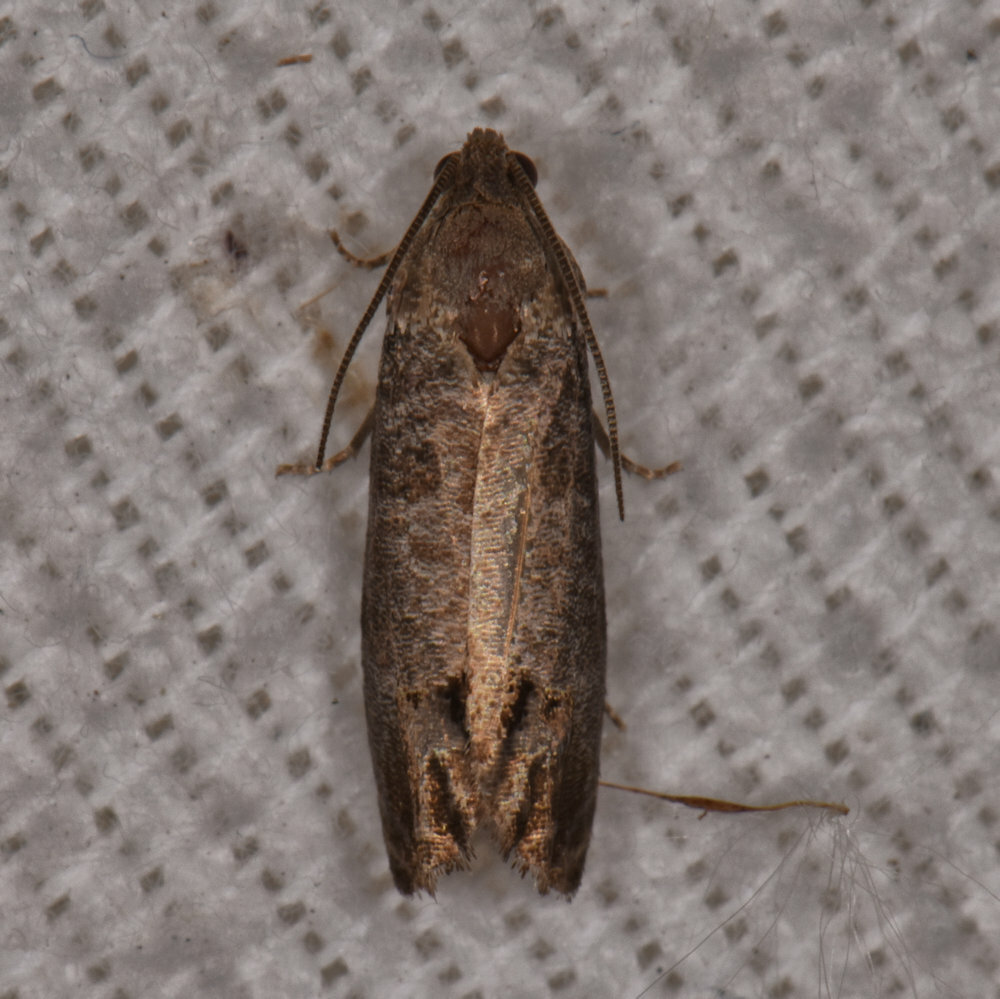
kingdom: Animalia
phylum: Arthropoda
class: Insecta
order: Lepidoptera
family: Tortricidae
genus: Cydia
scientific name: Cydia pomonella
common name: Codling moth
